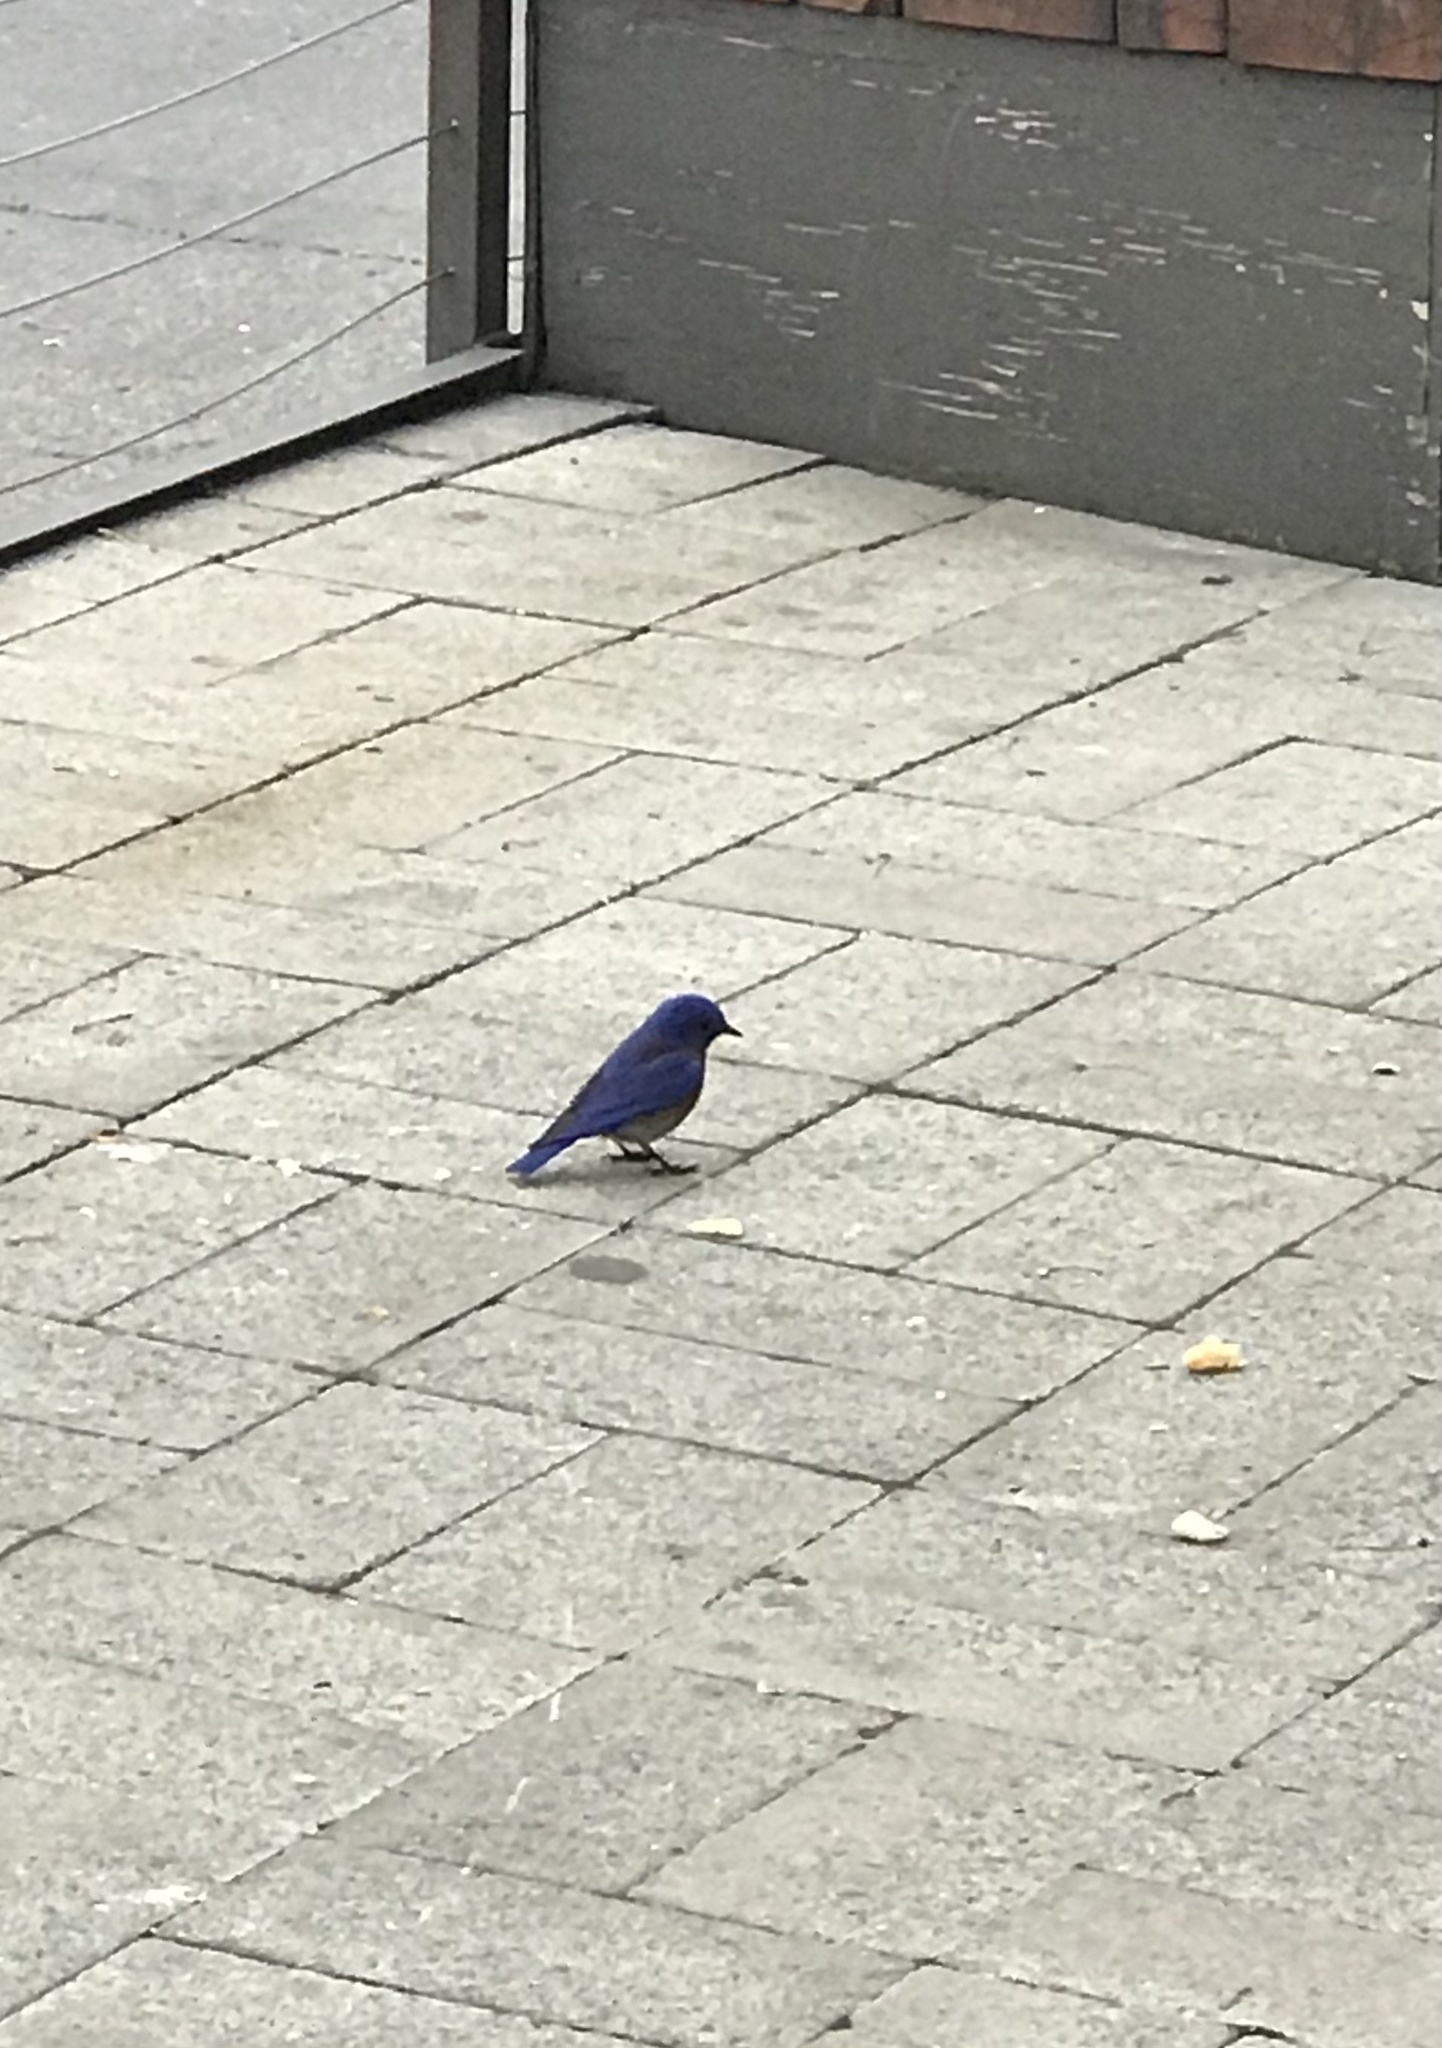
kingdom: Animalia
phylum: Chordata
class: Aves
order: Passeriformes
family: Turdidae
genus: Sialia
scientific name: Sialia mexicana
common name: Western bluebird
